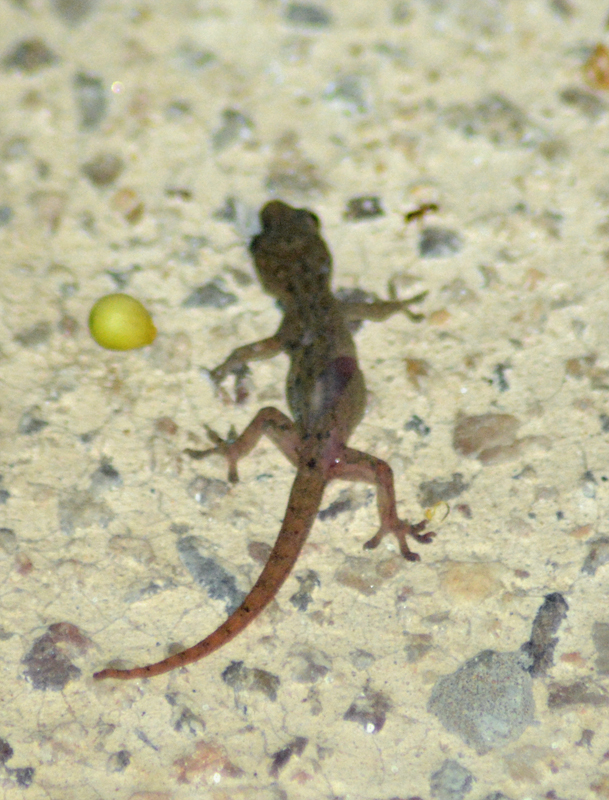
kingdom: Animalia
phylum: Chordata
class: Squamata
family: Gekkonidae
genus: Hemidactylus
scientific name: Hemidactylus frenatus
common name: Common house gecko
